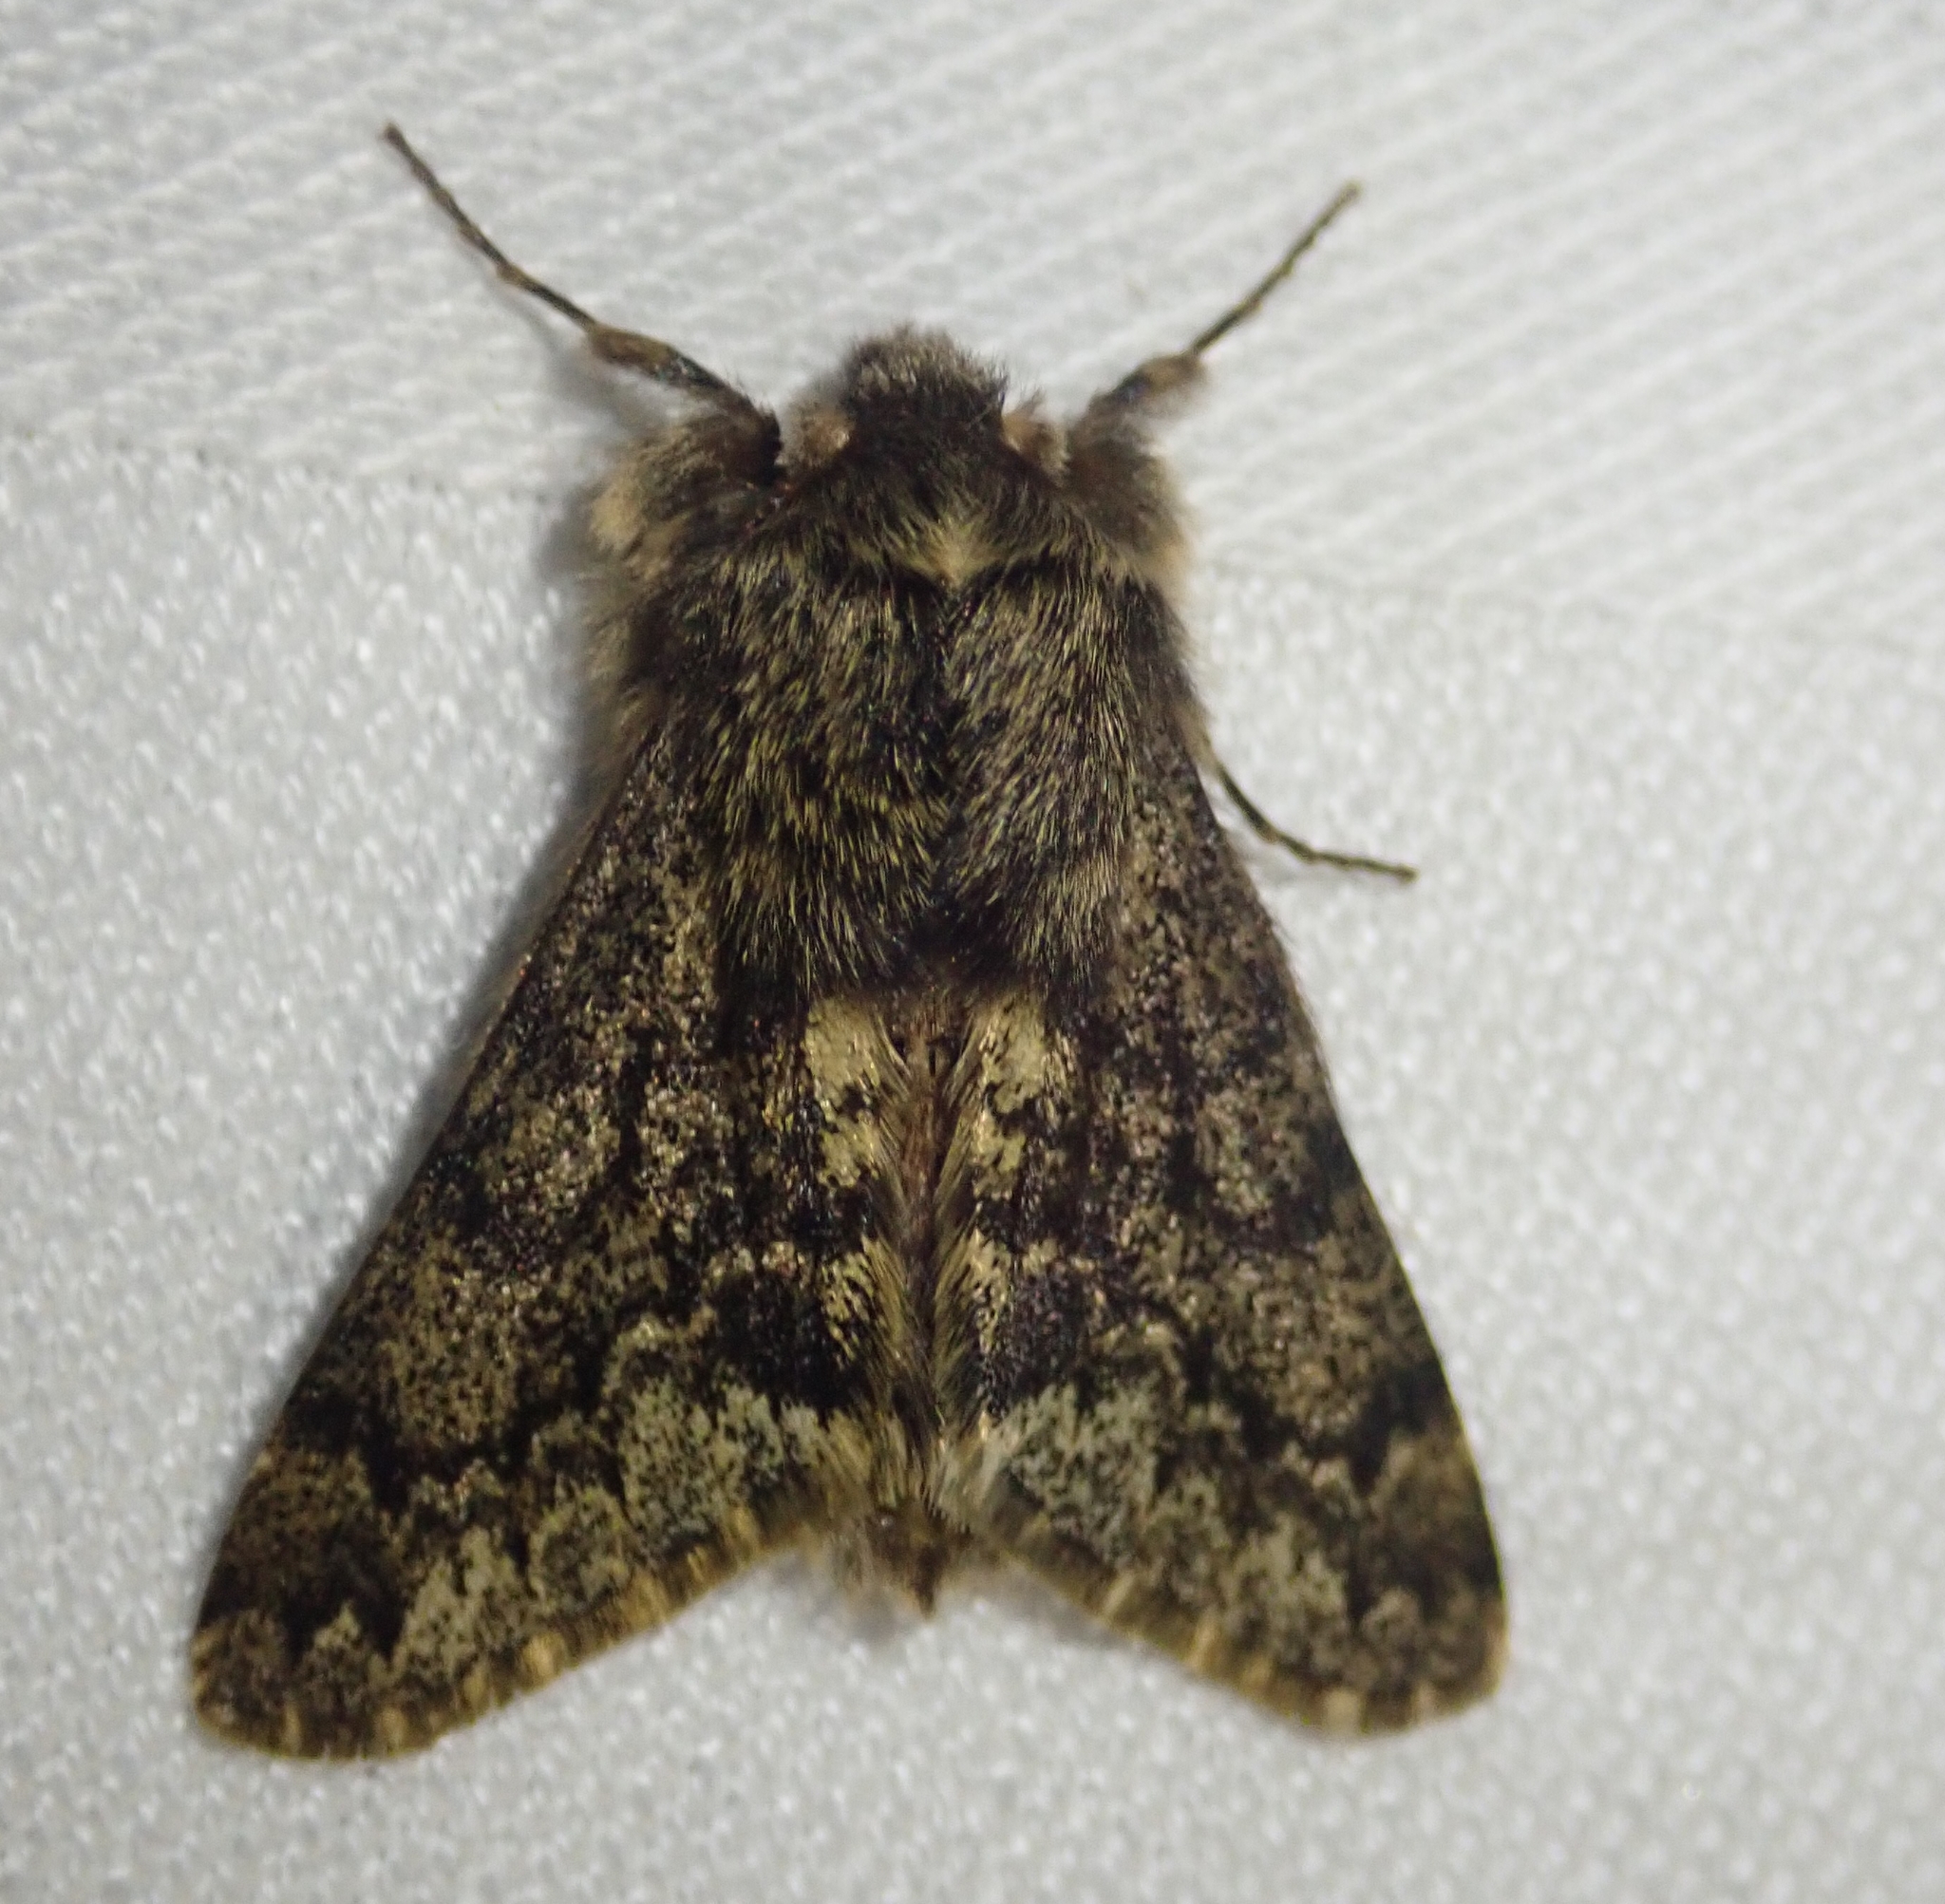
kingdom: Animalia
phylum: Arthropoda
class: Insecta
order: Lepidoptera
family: Geometridae
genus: Apocheima
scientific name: Apocheima hispidaria
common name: Small brindled beauty
